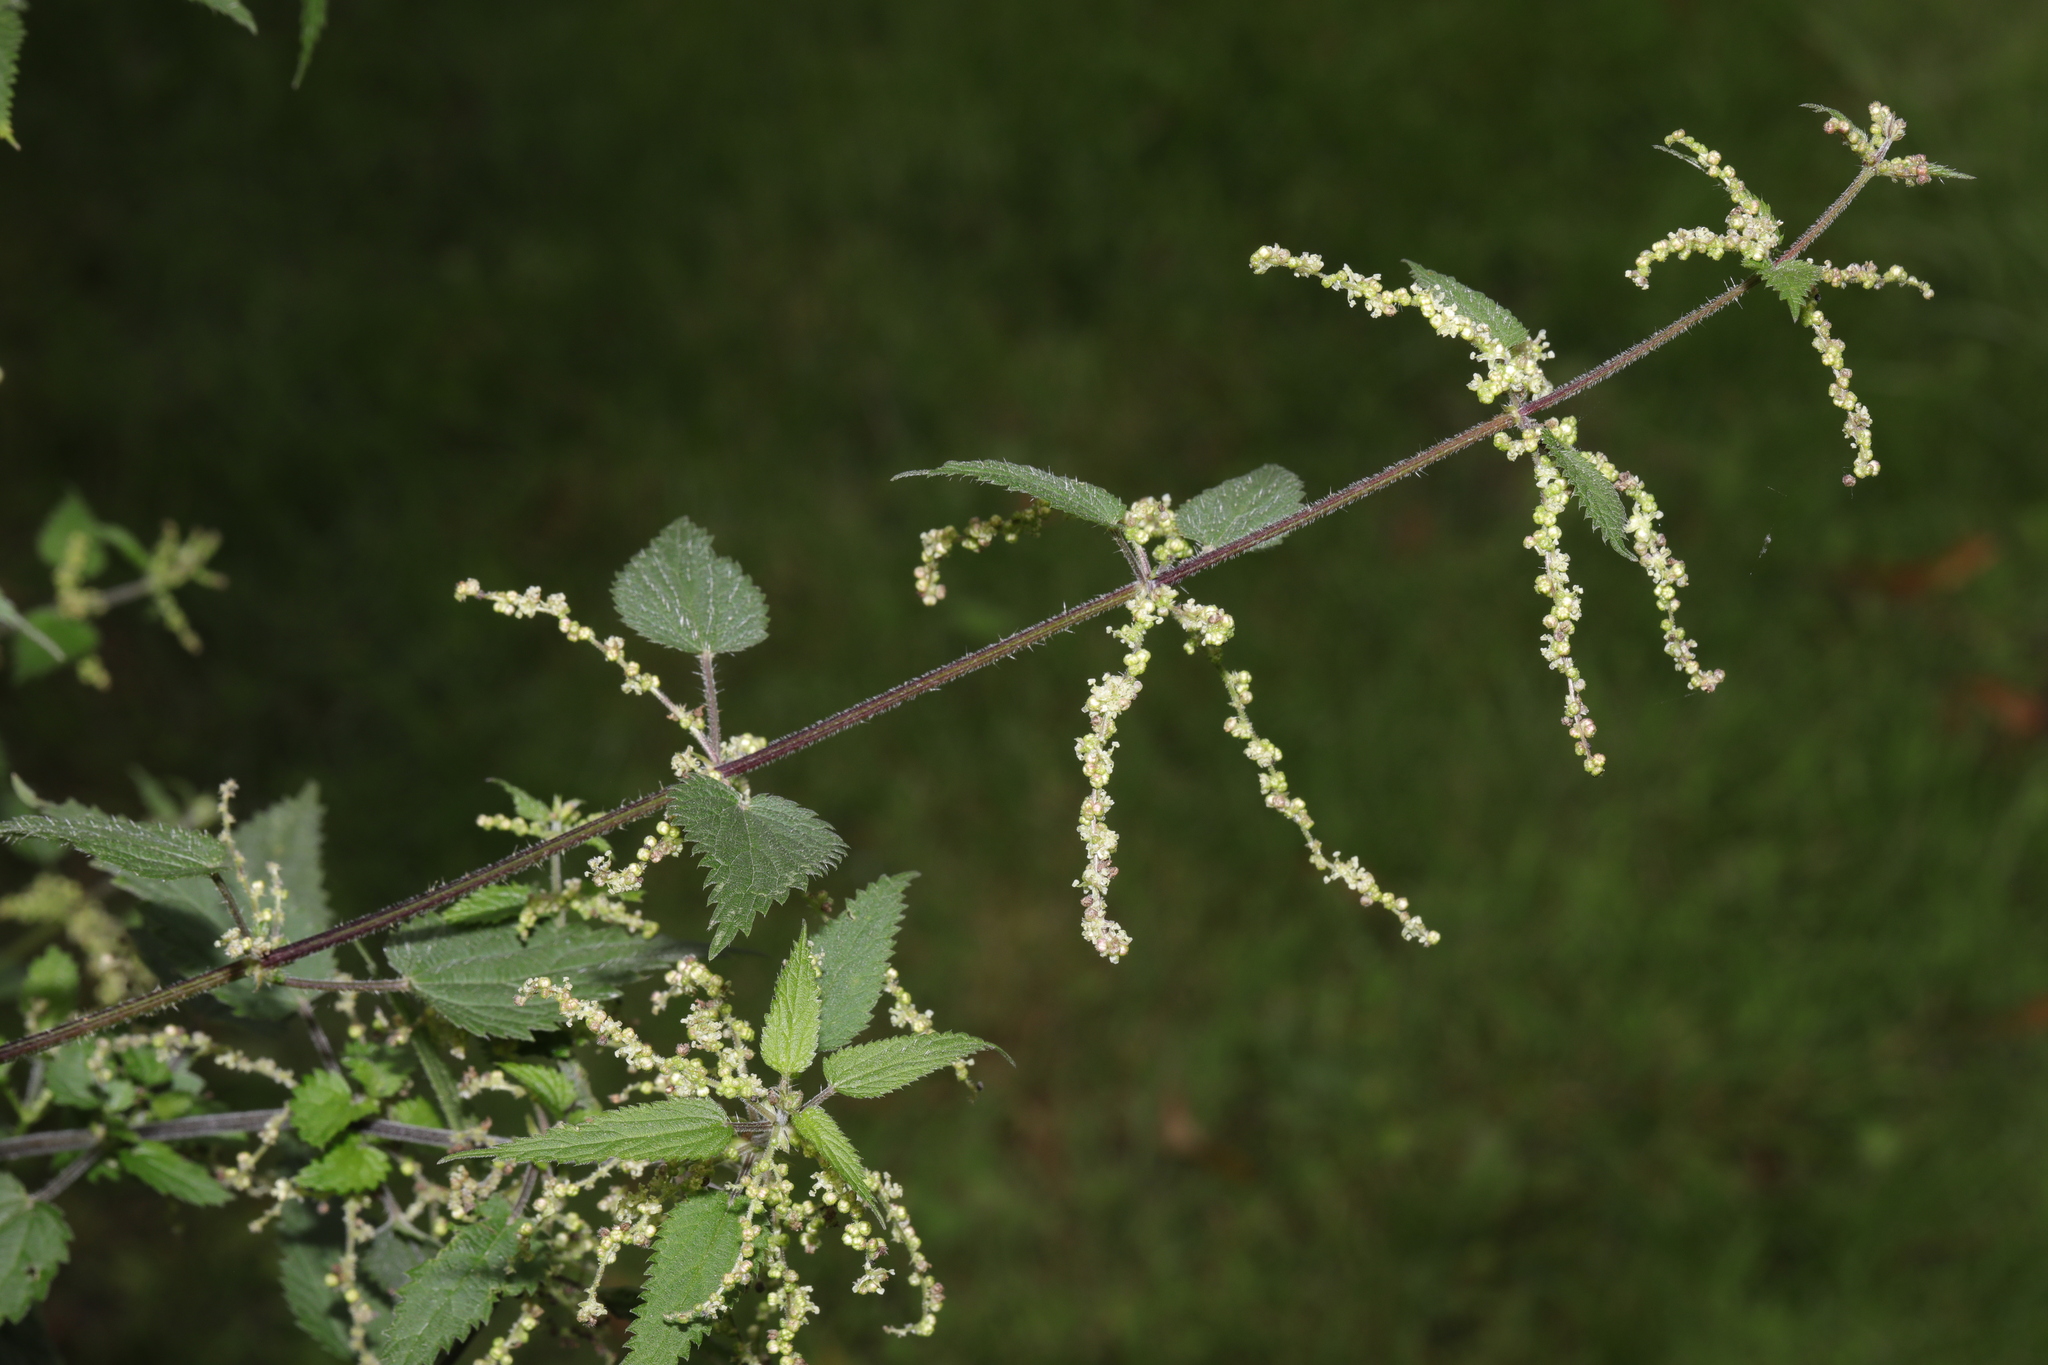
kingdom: Plantae
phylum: Tracheophyta
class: Magnoliopsida
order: Rosales
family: Urticaceae
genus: Urtica
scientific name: Urtica dioica
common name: Common nettle
